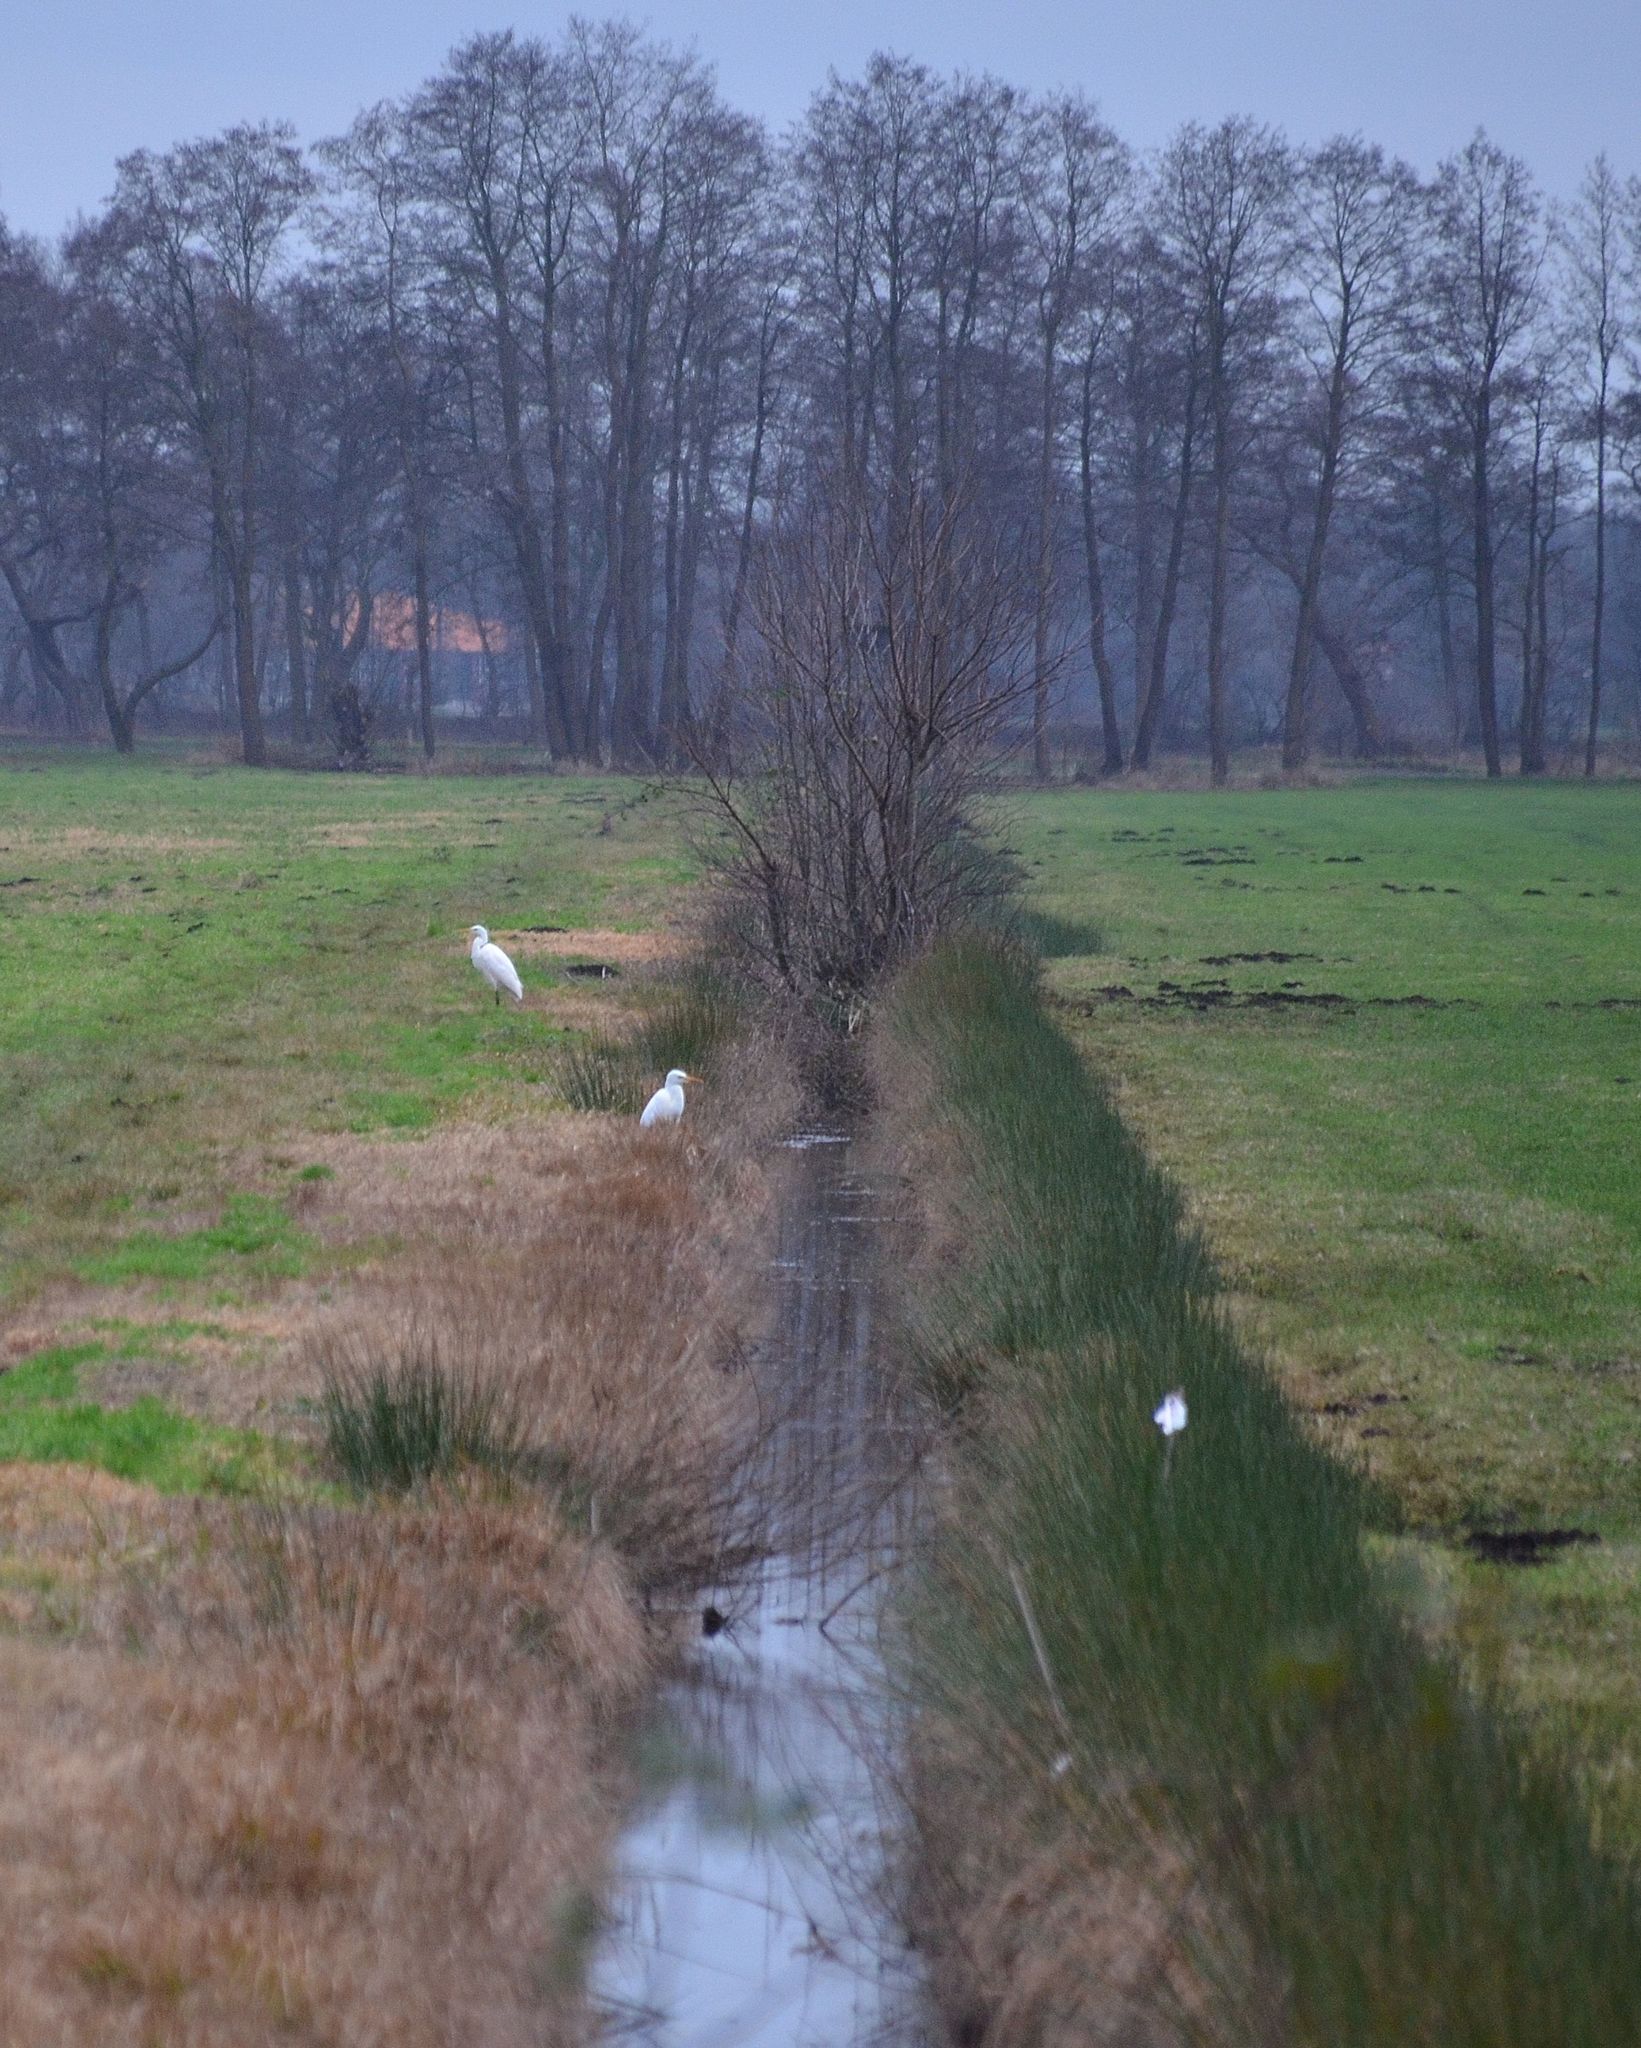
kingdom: Animalia
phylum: Chordata
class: Aves
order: Pelecaniformes
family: Ardeidae
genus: Ardea
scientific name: Ardea alba
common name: Great egret
